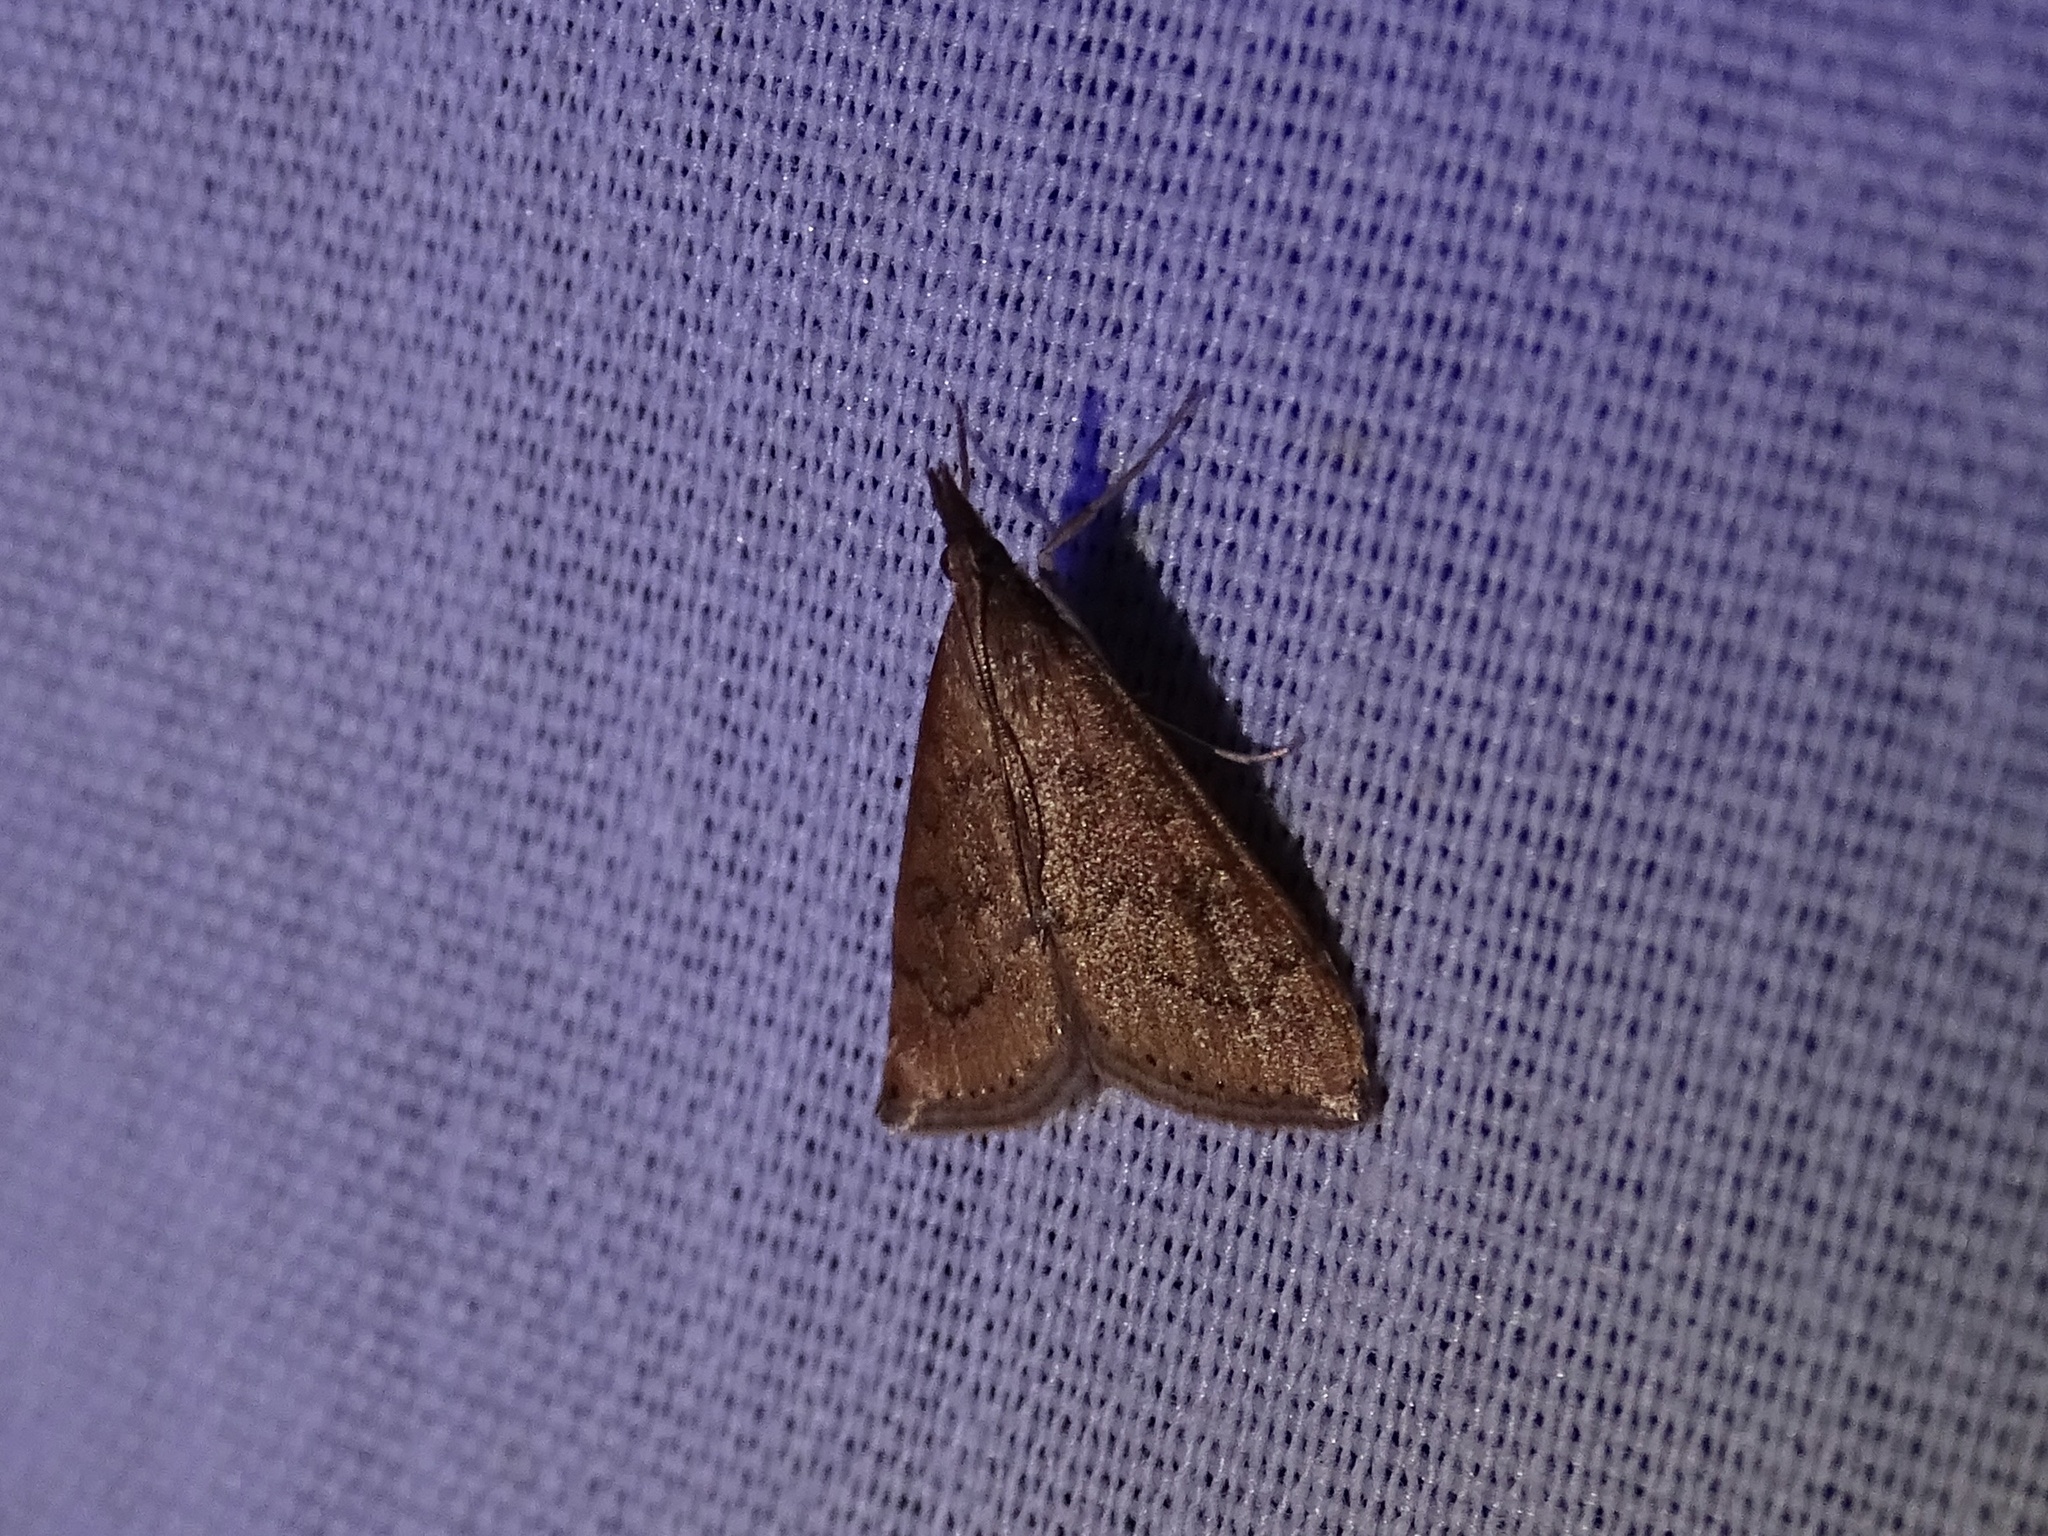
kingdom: Animalia
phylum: Arthropoda
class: Insecta
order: Lepidoptera
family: Crambidae
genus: Udea
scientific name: Udea rubigalis
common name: Celery leaftier moth
